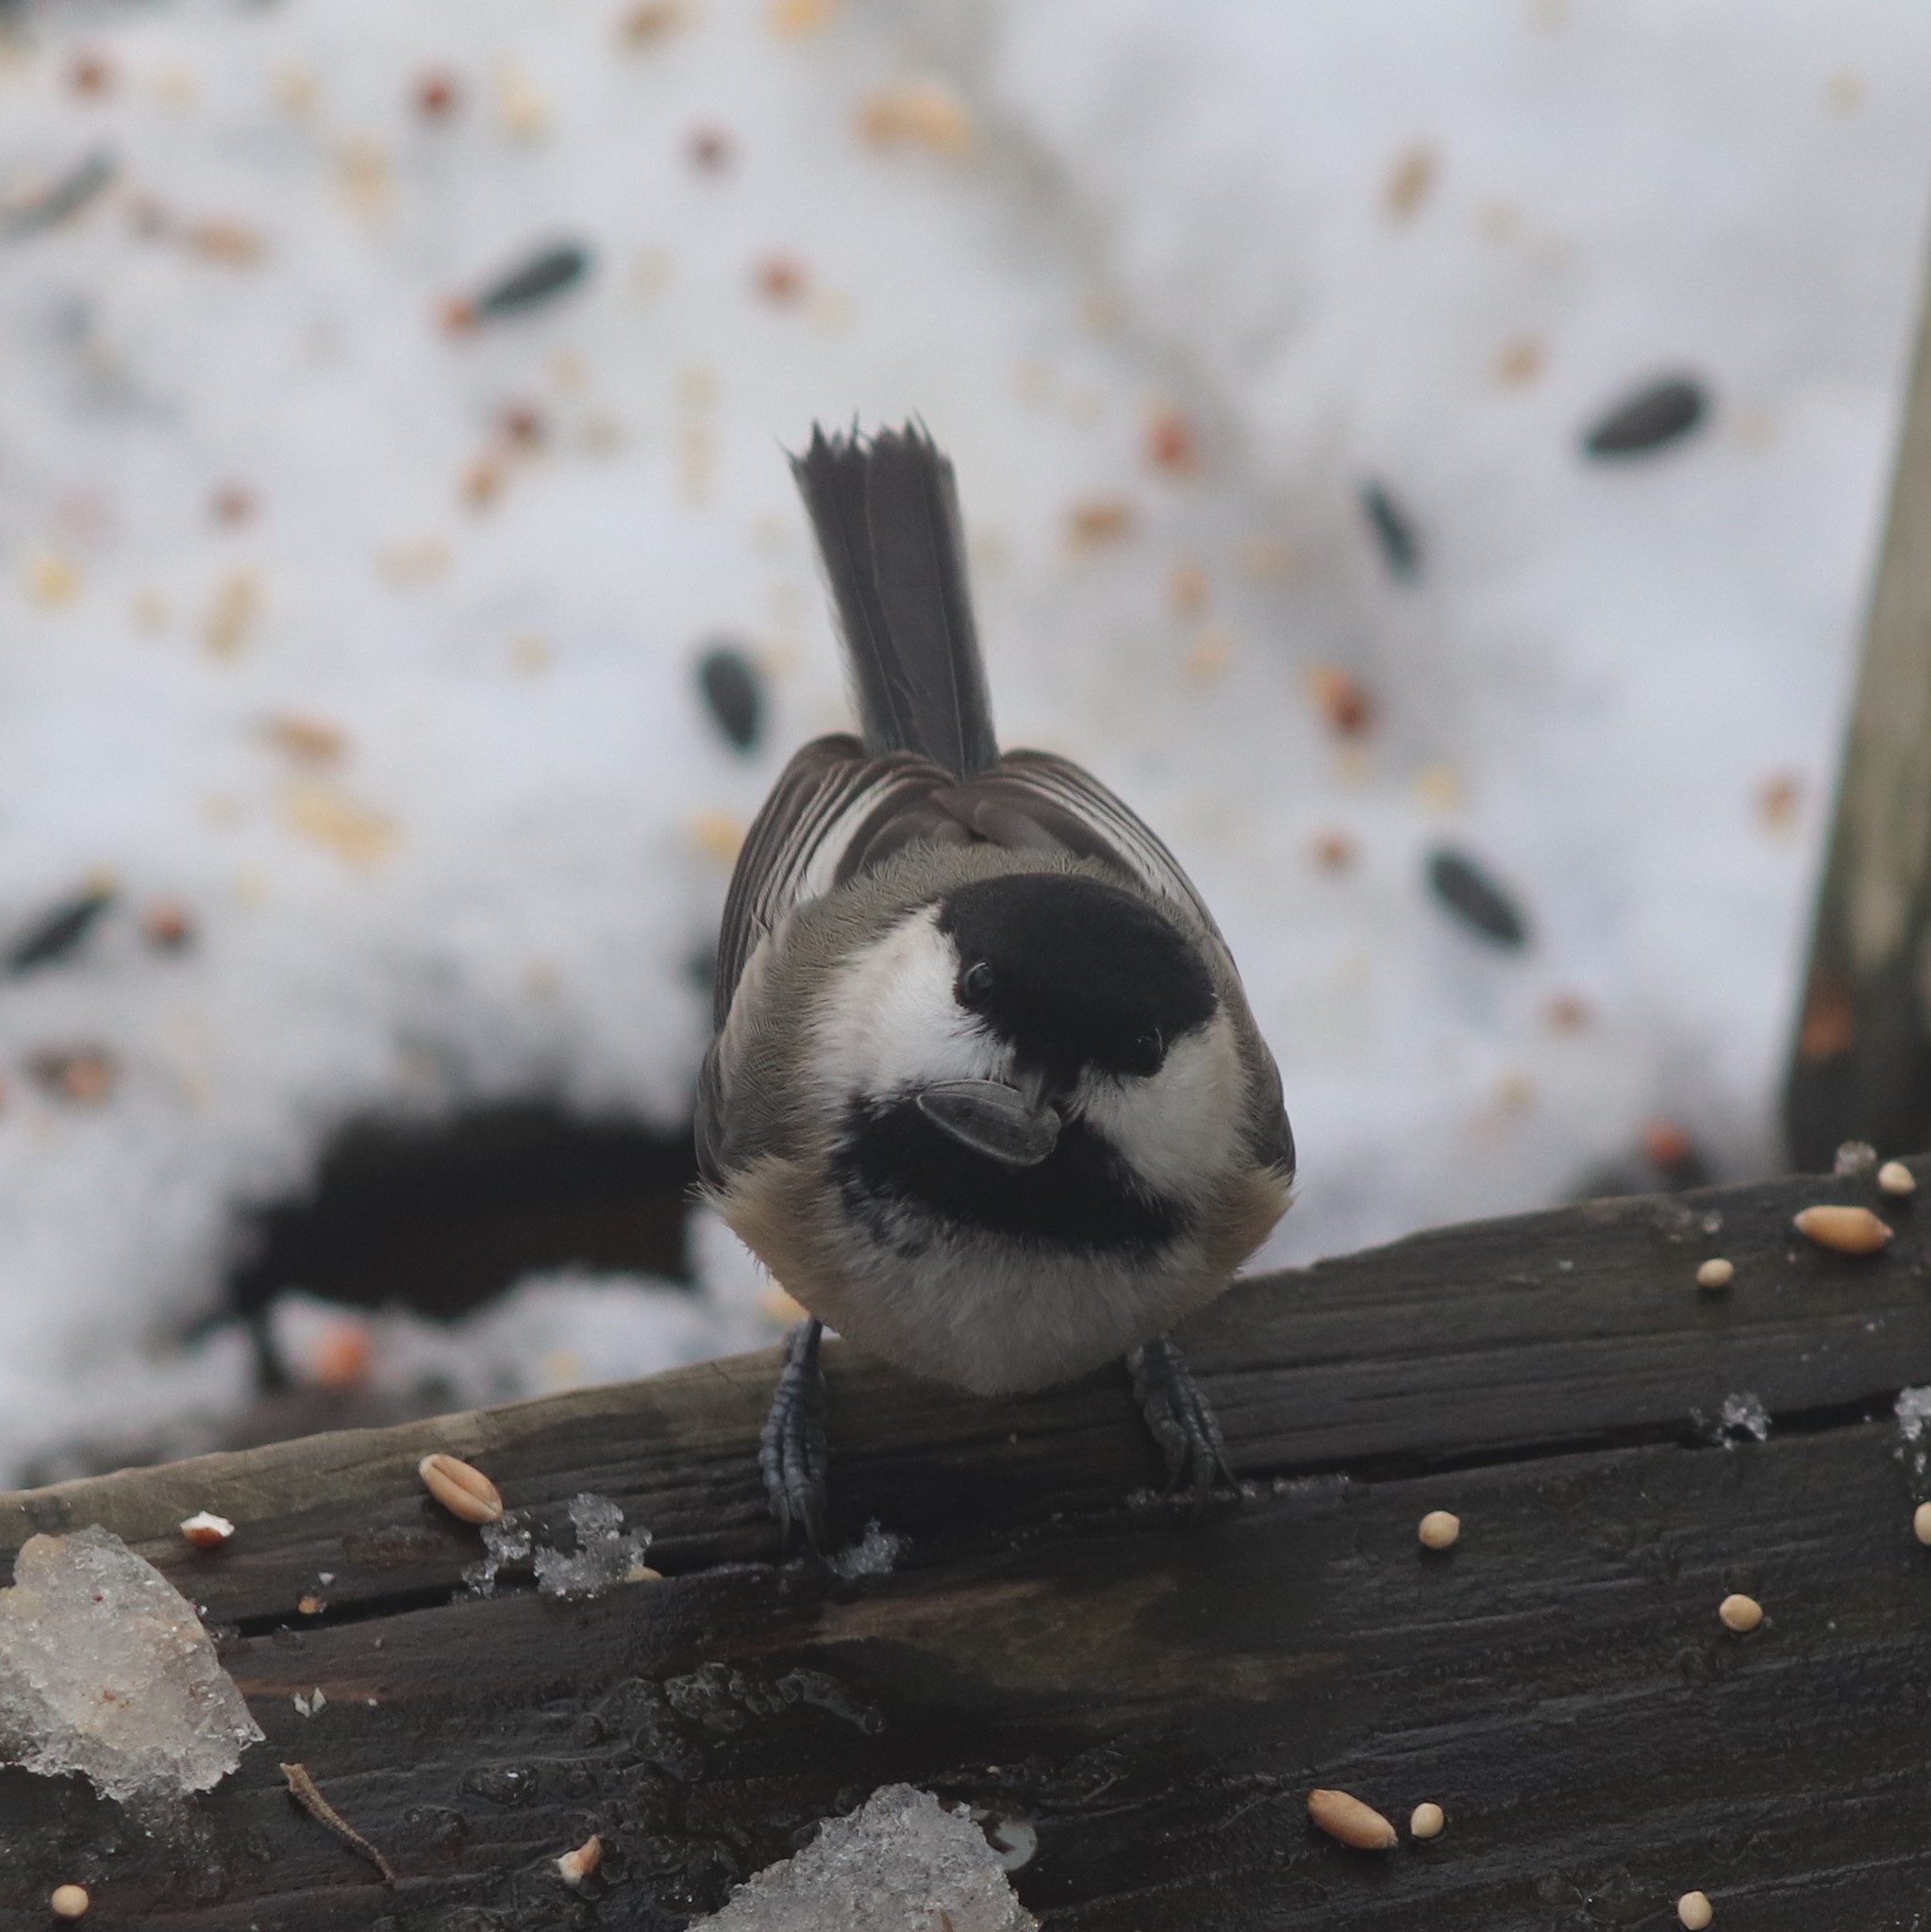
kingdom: Animalia
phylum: Chordata
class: Aves
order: Passeriformes
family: Paridae
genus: Poecile
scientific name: Poecile atricapillus
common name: Black-capped chickadee
